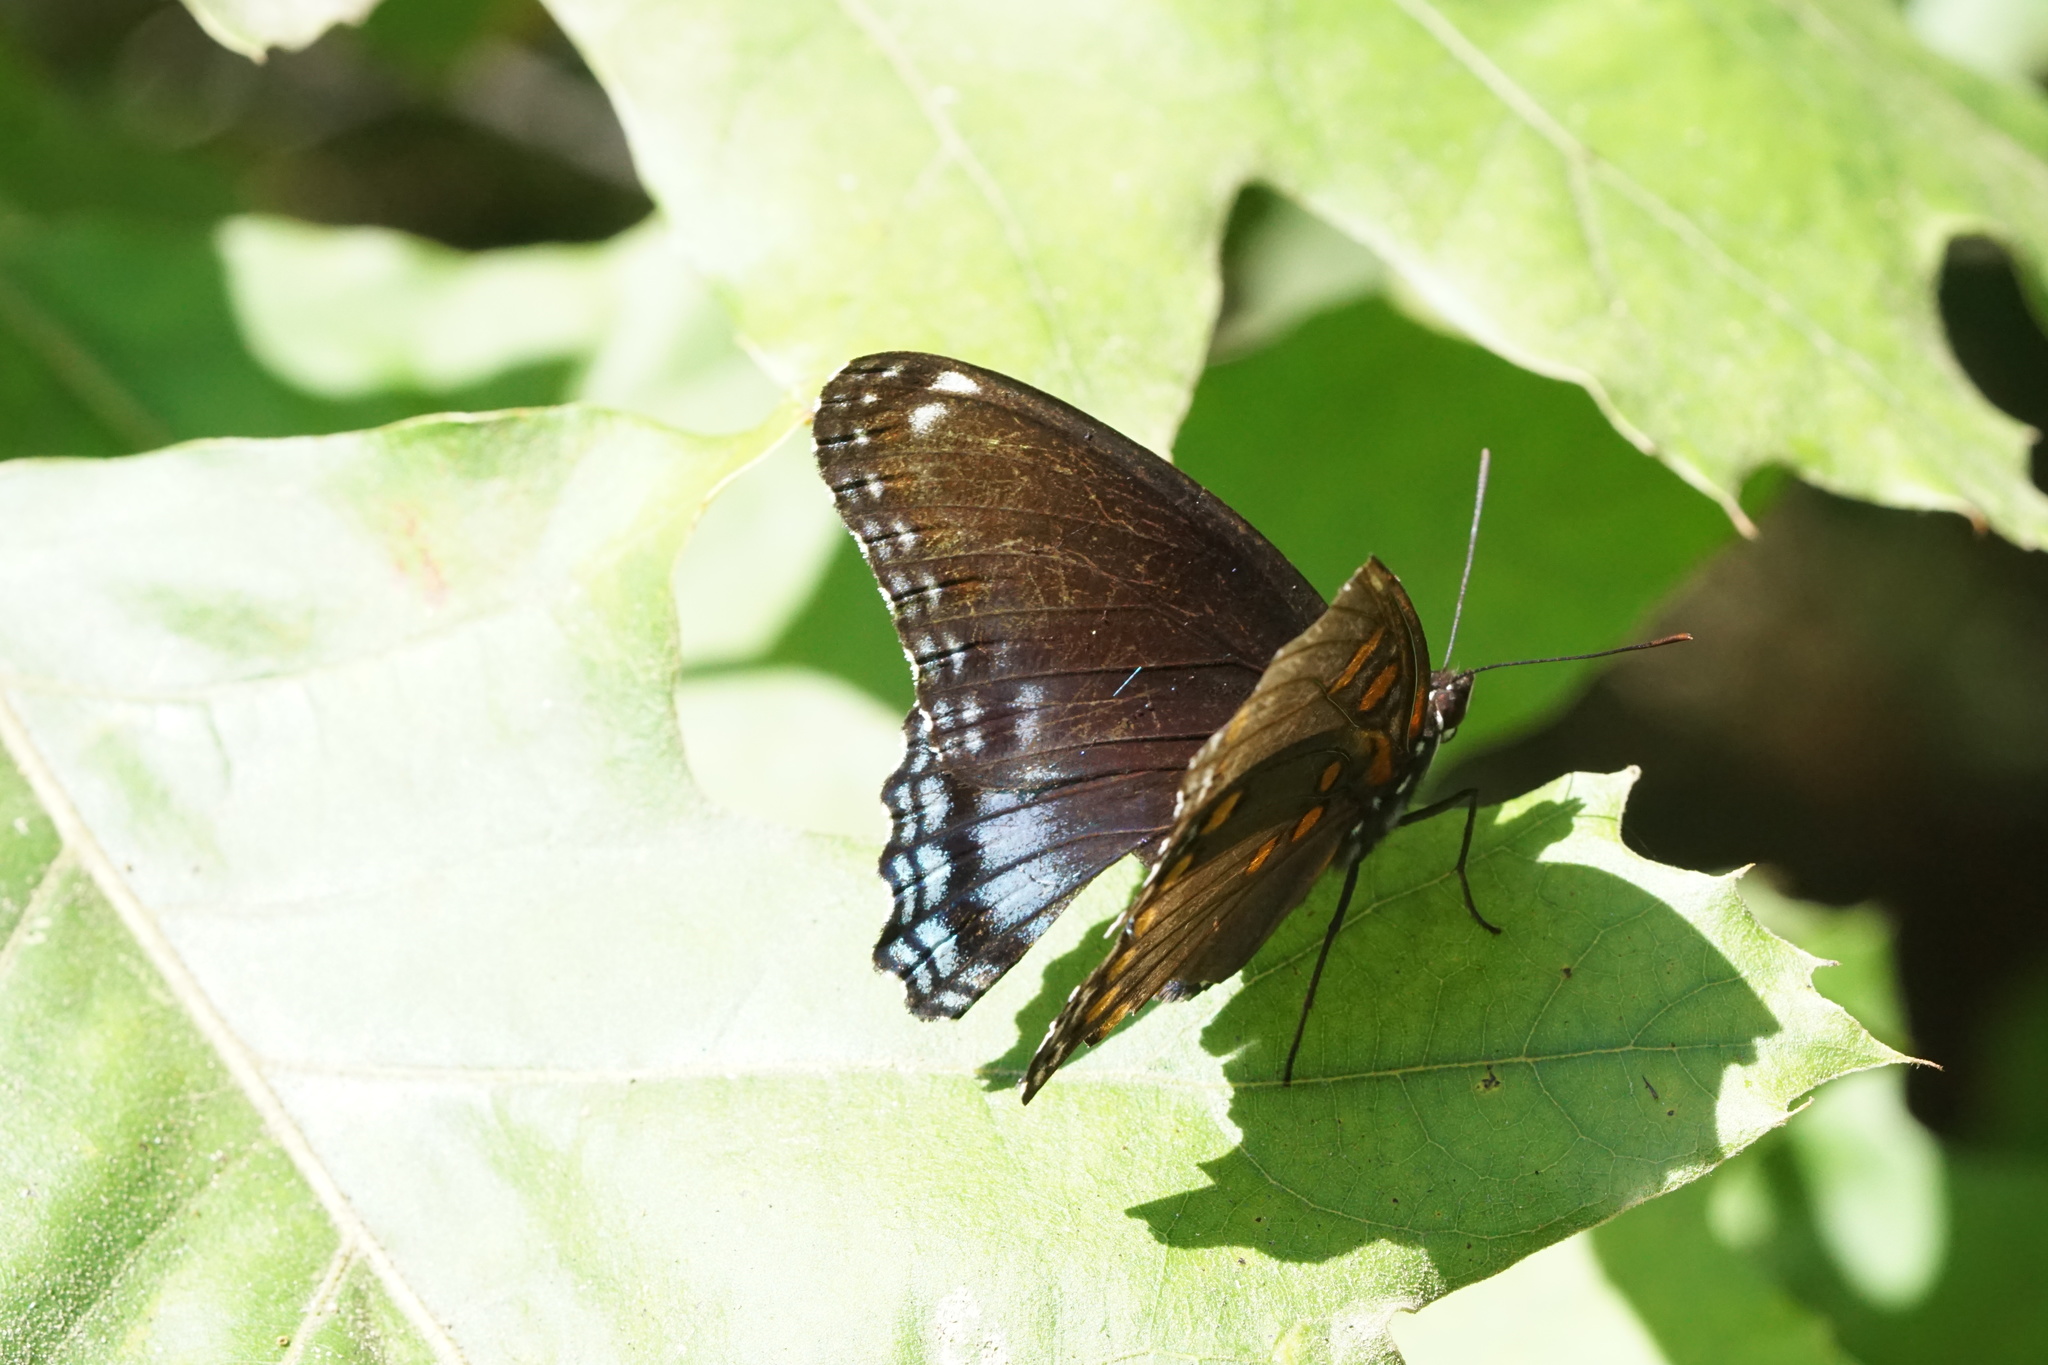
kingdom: Animalia
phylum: Arthropoda
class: Insecta
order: Lepidoptera
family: Nymphalidae
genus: Limenitis
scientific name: Limenitis arthemis
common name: Red-spotted admiral
